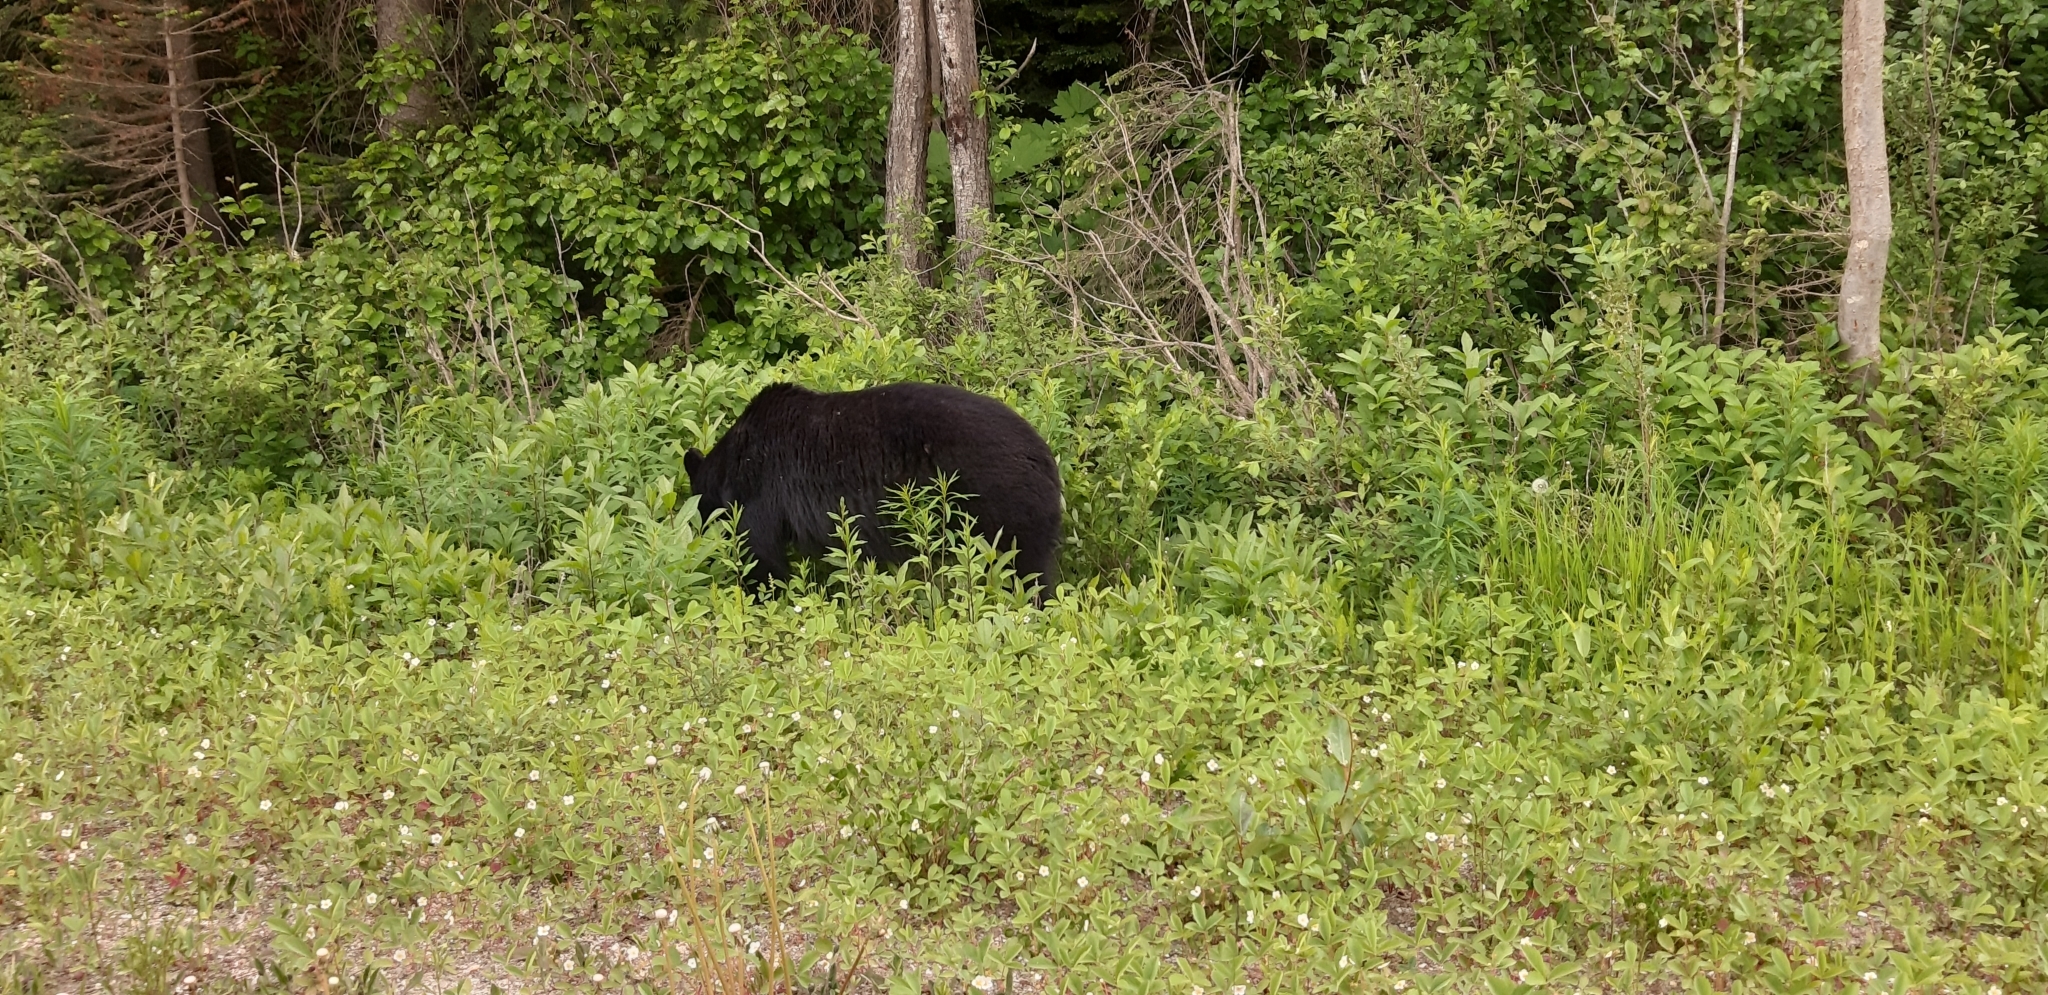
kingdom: Animalia
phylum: Chordata
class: Mammalia
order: Carnivora
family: Ursidae
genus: Ursus
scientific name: Ursus americanus
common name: American black bear
